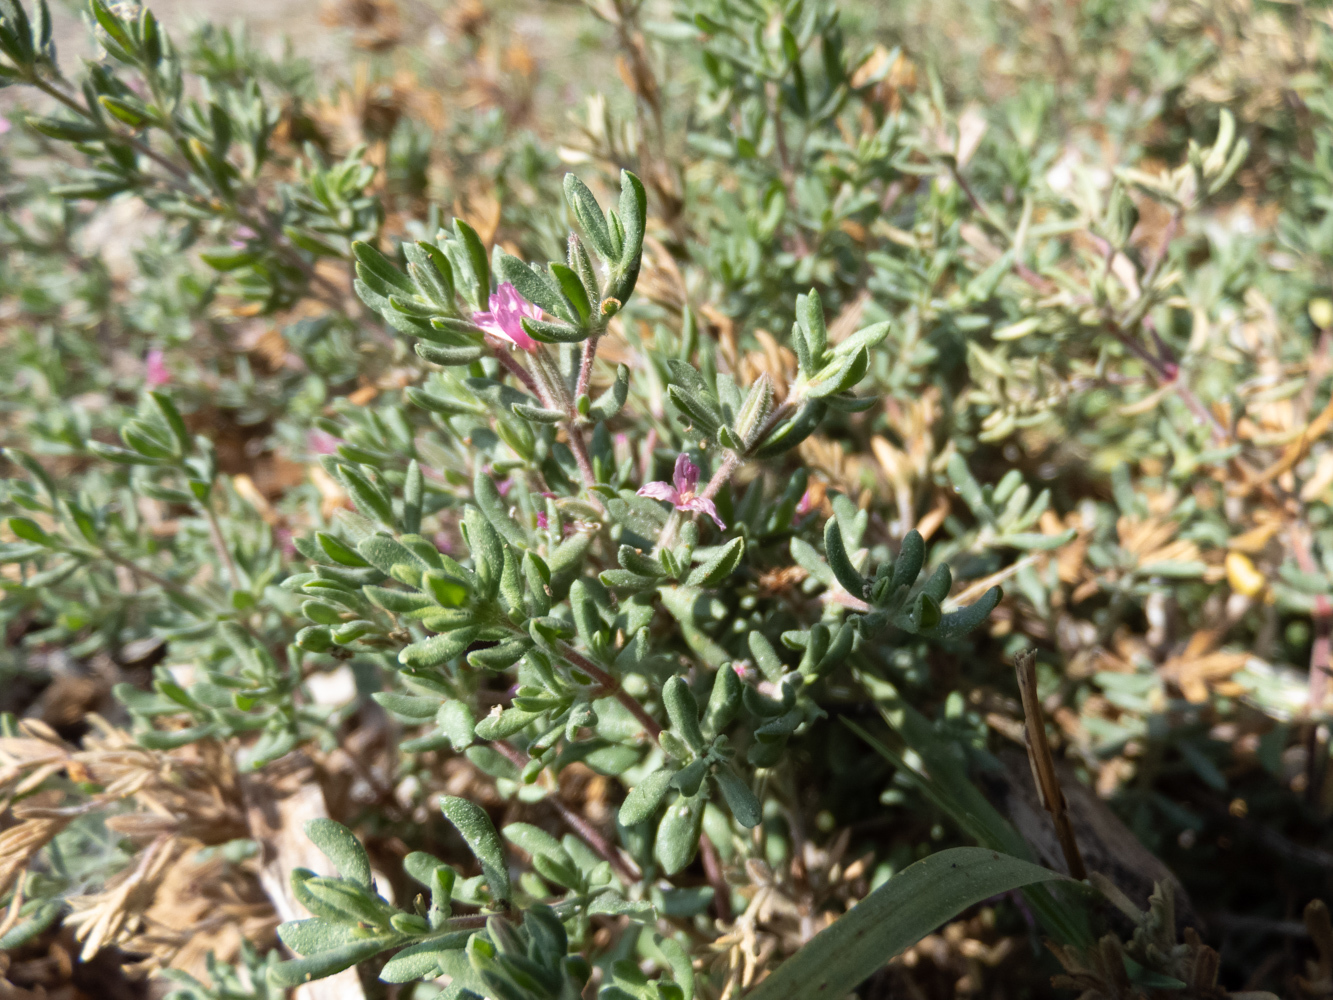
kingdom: Plantae
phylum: Tracheophyta
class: Magnoliopsida
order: Caryophyllales
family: Frankeniaceae
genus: Frankenia
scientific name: Frankenia salina
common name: Alkali seaheath
